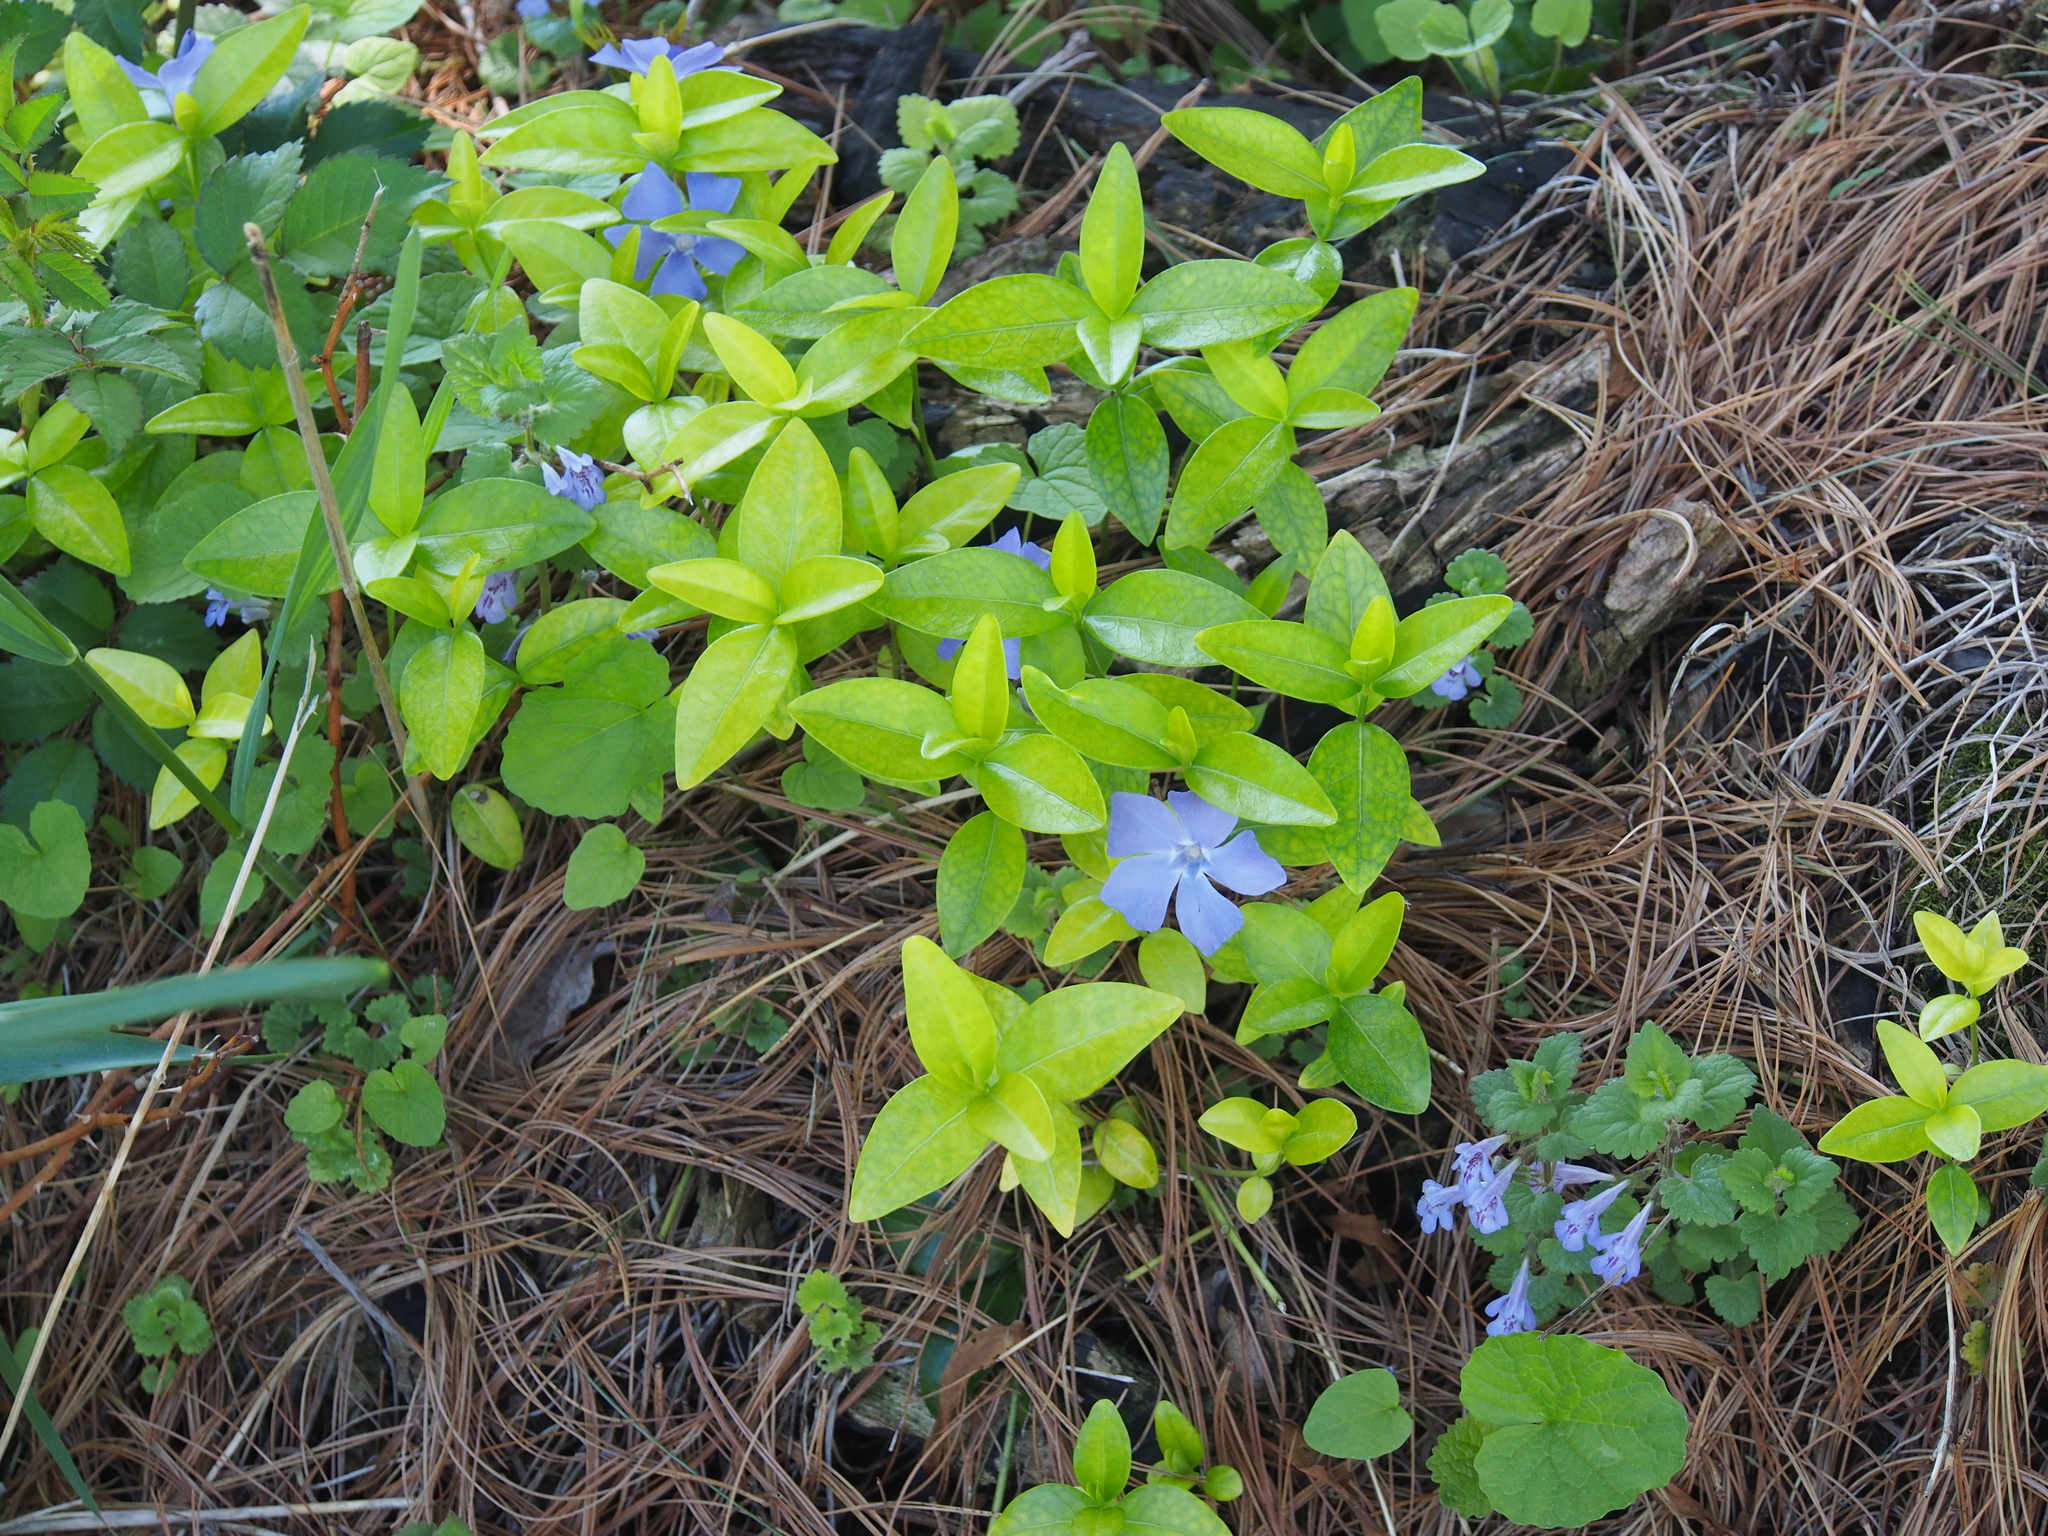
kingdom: Plantae
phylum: Tracheophyta
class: Magnoliopsida
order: Gentianales
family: Apocynaceae
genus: Vinca
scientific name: Vinca minor
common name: Lesser periwinkle
